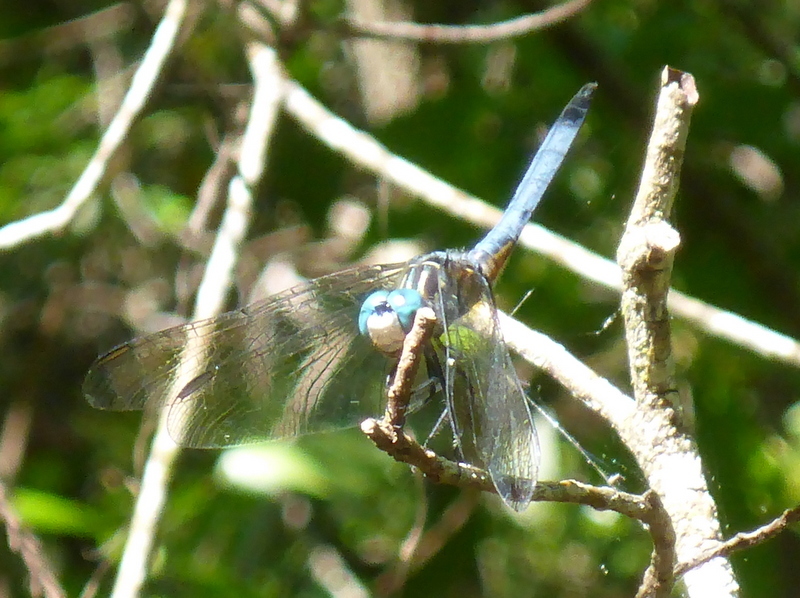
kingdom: Animalia
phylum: Arthropoda
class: Insecta
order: Odonata
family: Libellulidae
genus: Pachydiplax
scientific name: Pachydiplax longipennis
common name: Blue dasher
